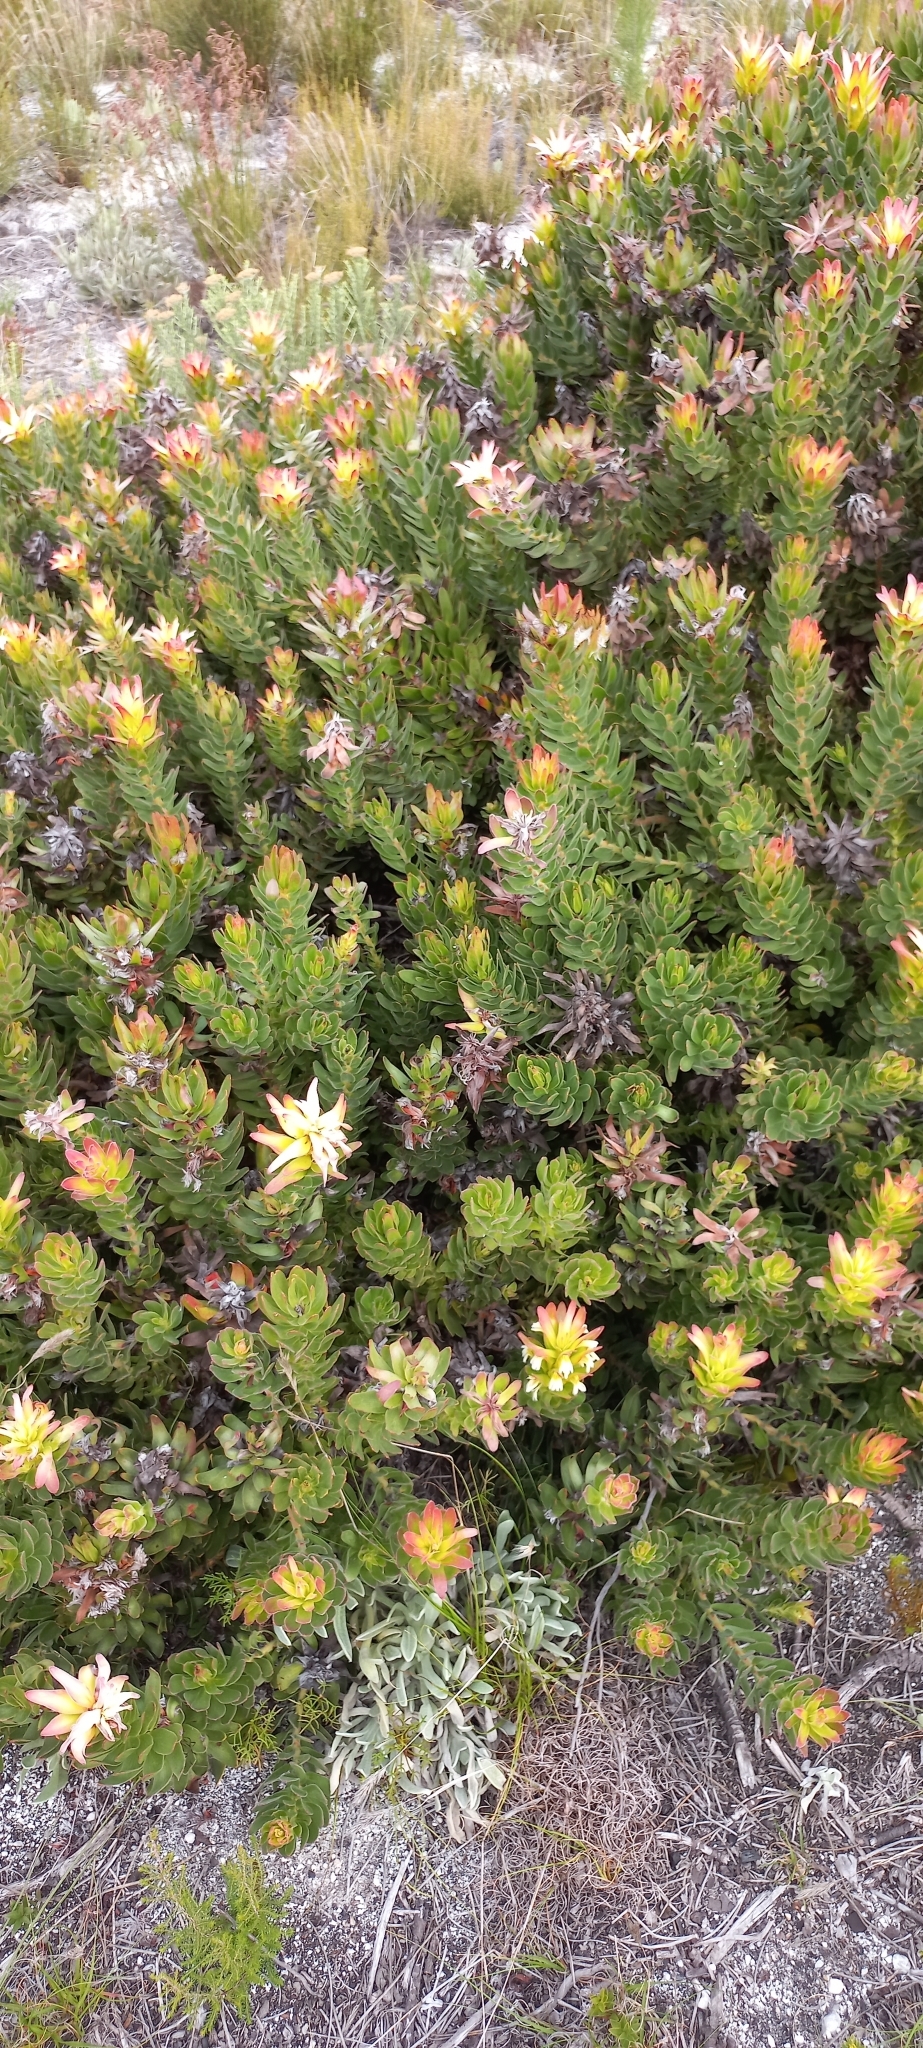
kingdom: Plantae
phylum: Tracheophyta
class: Magnoliopsida
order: Proteales
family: Proteaceae
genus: Mimetes
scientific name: Mimetes cucullatus
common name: Common pagoda
